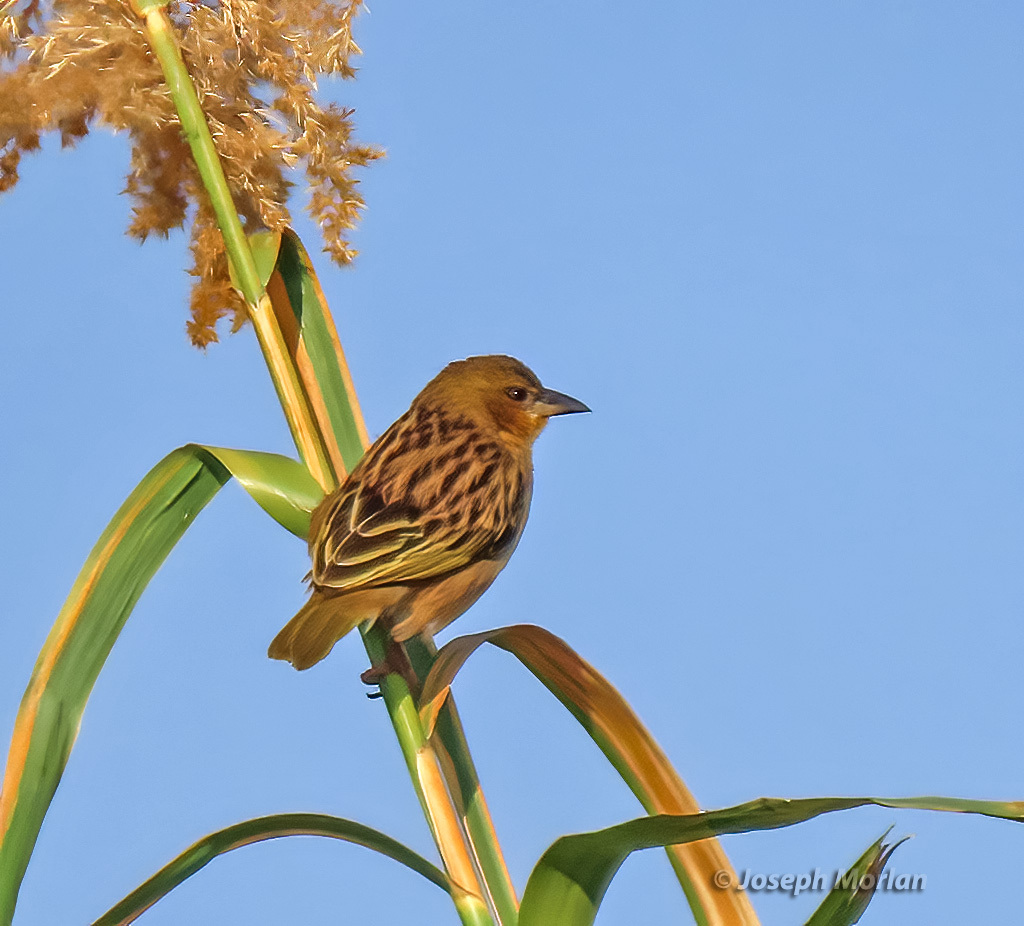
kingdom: Animalia
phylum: Chordata
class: Aves
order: Passeriformes
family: Ploceidae
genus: Ploceus
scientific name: Ploceus velatus
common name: Southern masked weaver
